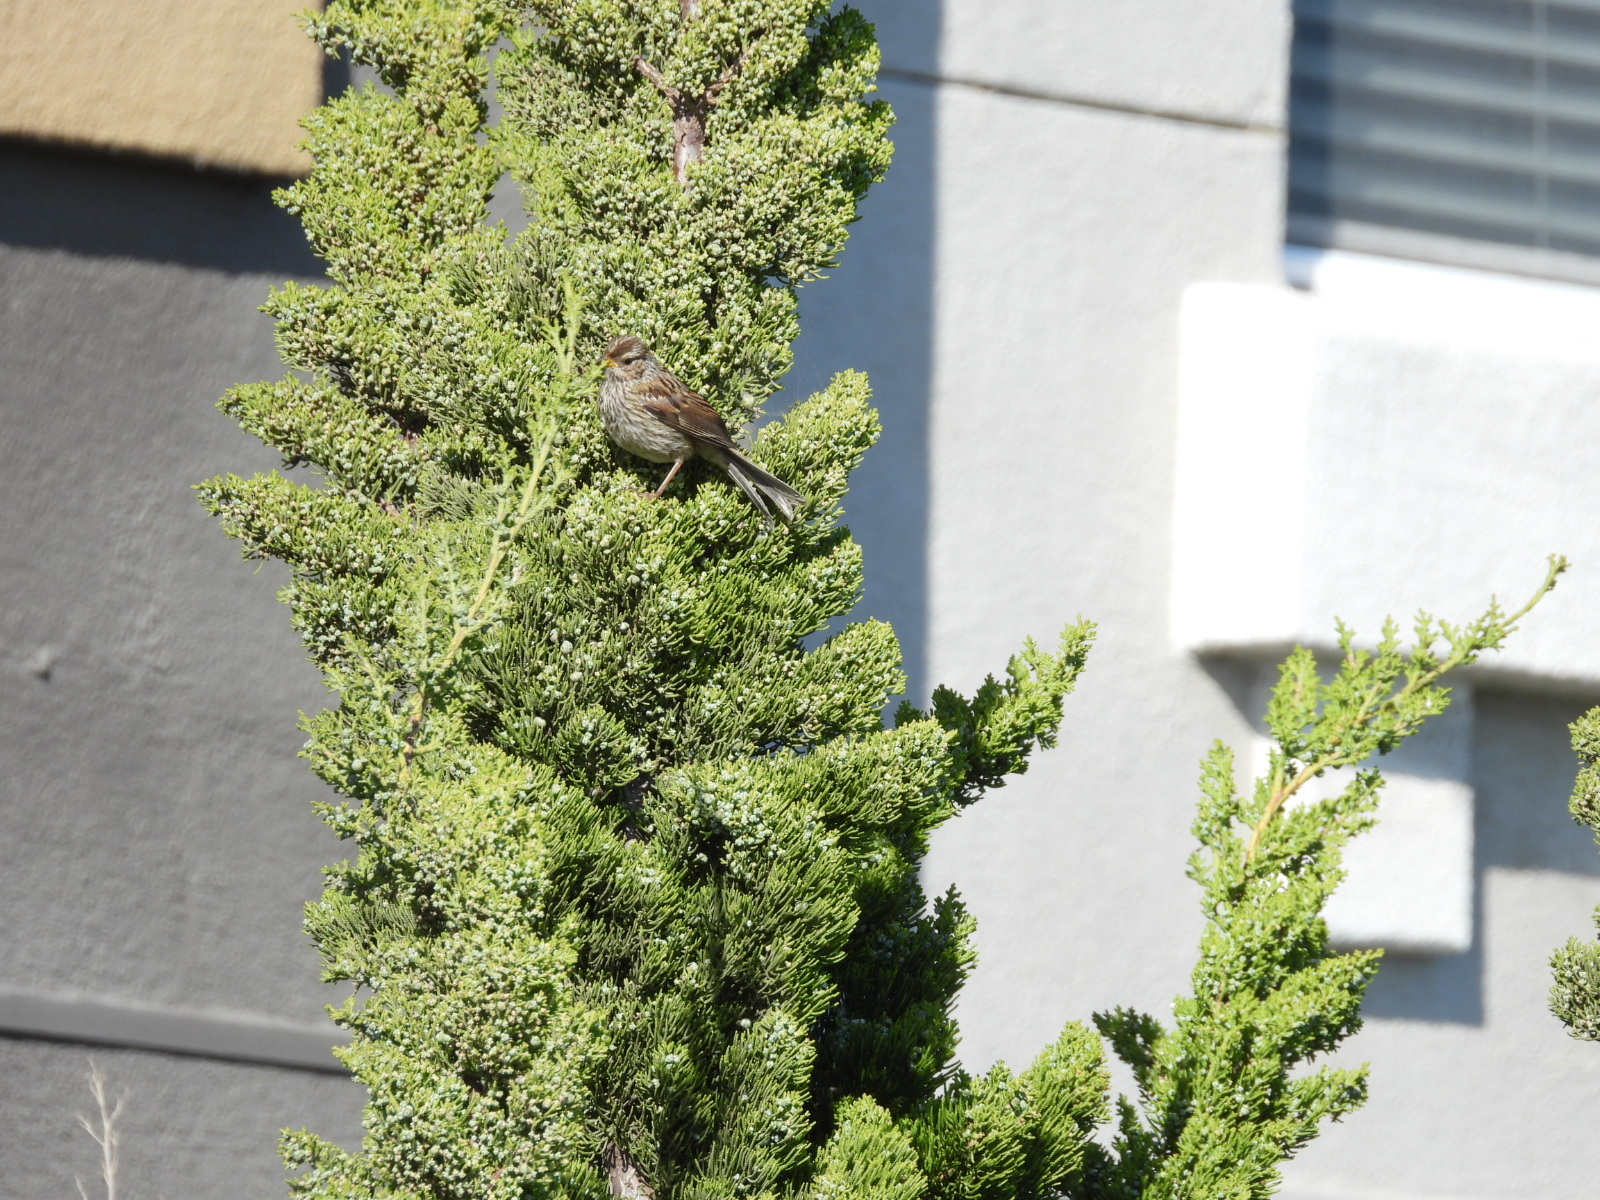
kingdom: Animalia
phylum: Chordata
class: Aves
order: Passeriformes
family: Passerellidae
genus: Zonotrichia
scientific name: Zonotrichia leucophrys
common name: White-crowned sparrow
